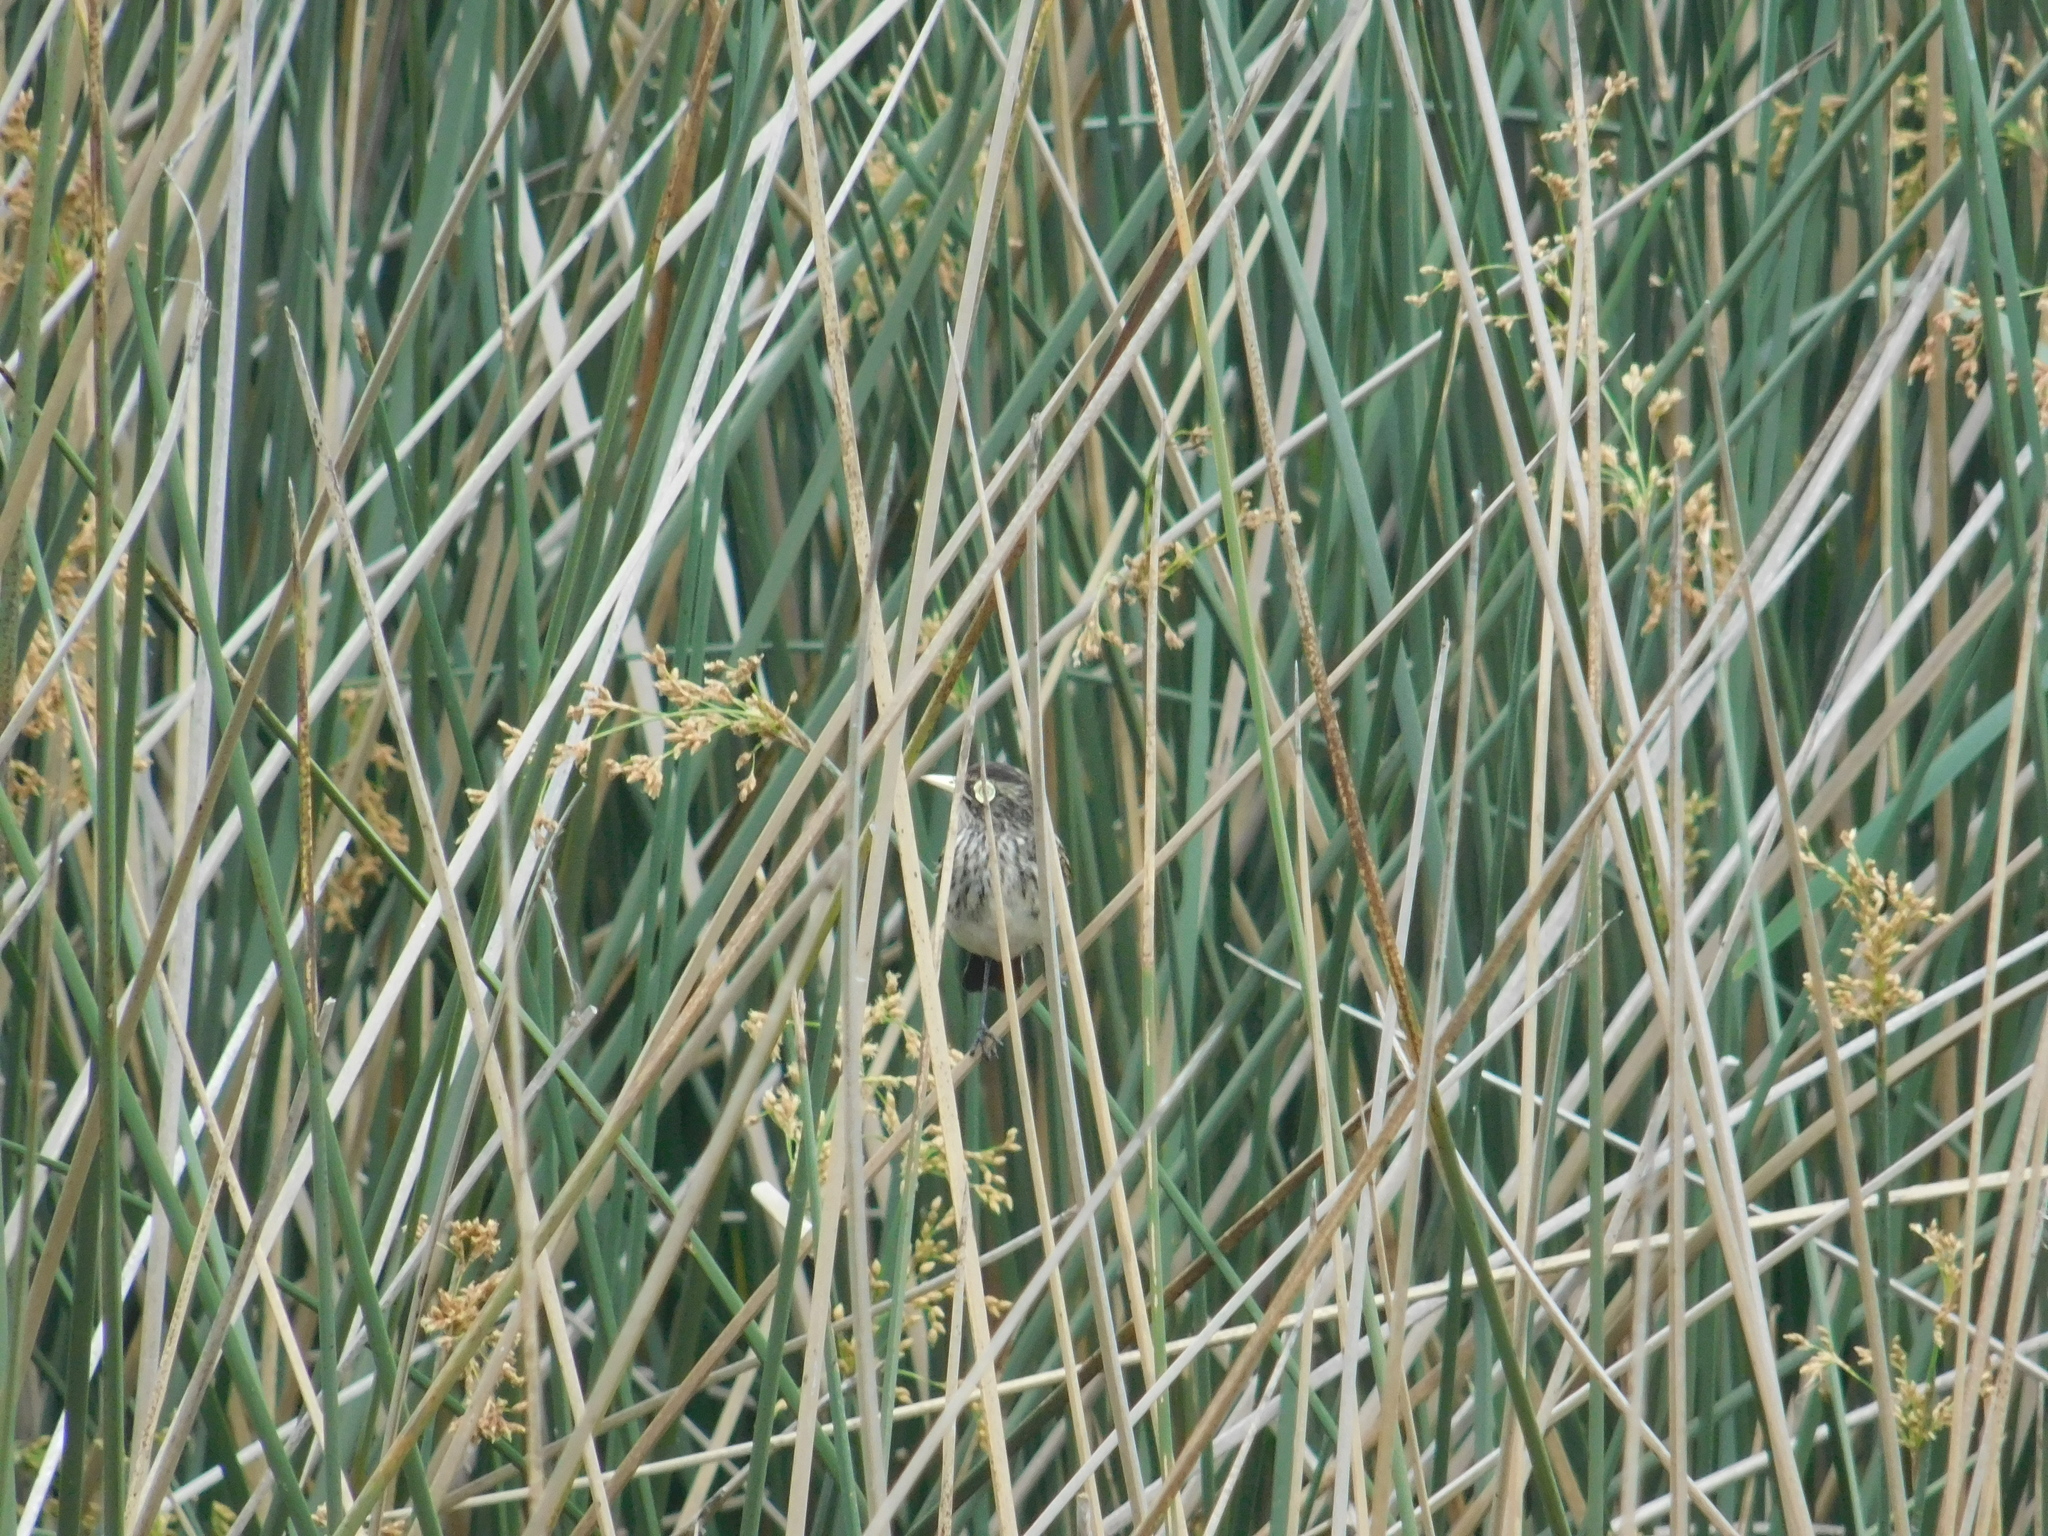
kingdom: Animalia
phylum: Chordata
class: Aves
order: Passeriformes
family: Tyrannidae
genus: Hymenops
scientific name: Hymenops perspicillatus
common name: Spectacled tyrant
